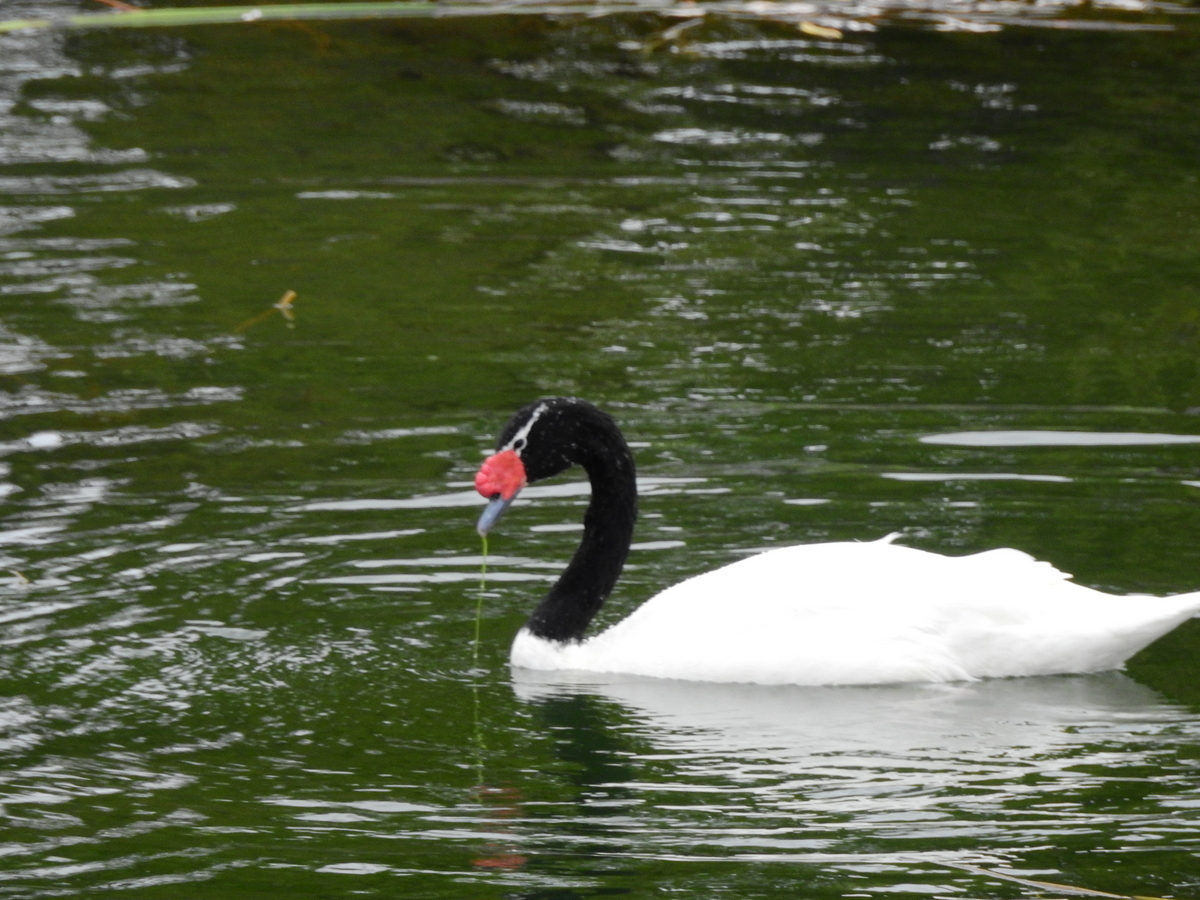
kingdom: Animalia
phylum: Chordata
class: Aves
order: Anseriformes
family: Anatidae
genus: Cygnus
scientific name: Cygnus melancoryphus
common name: Black-necked swan
